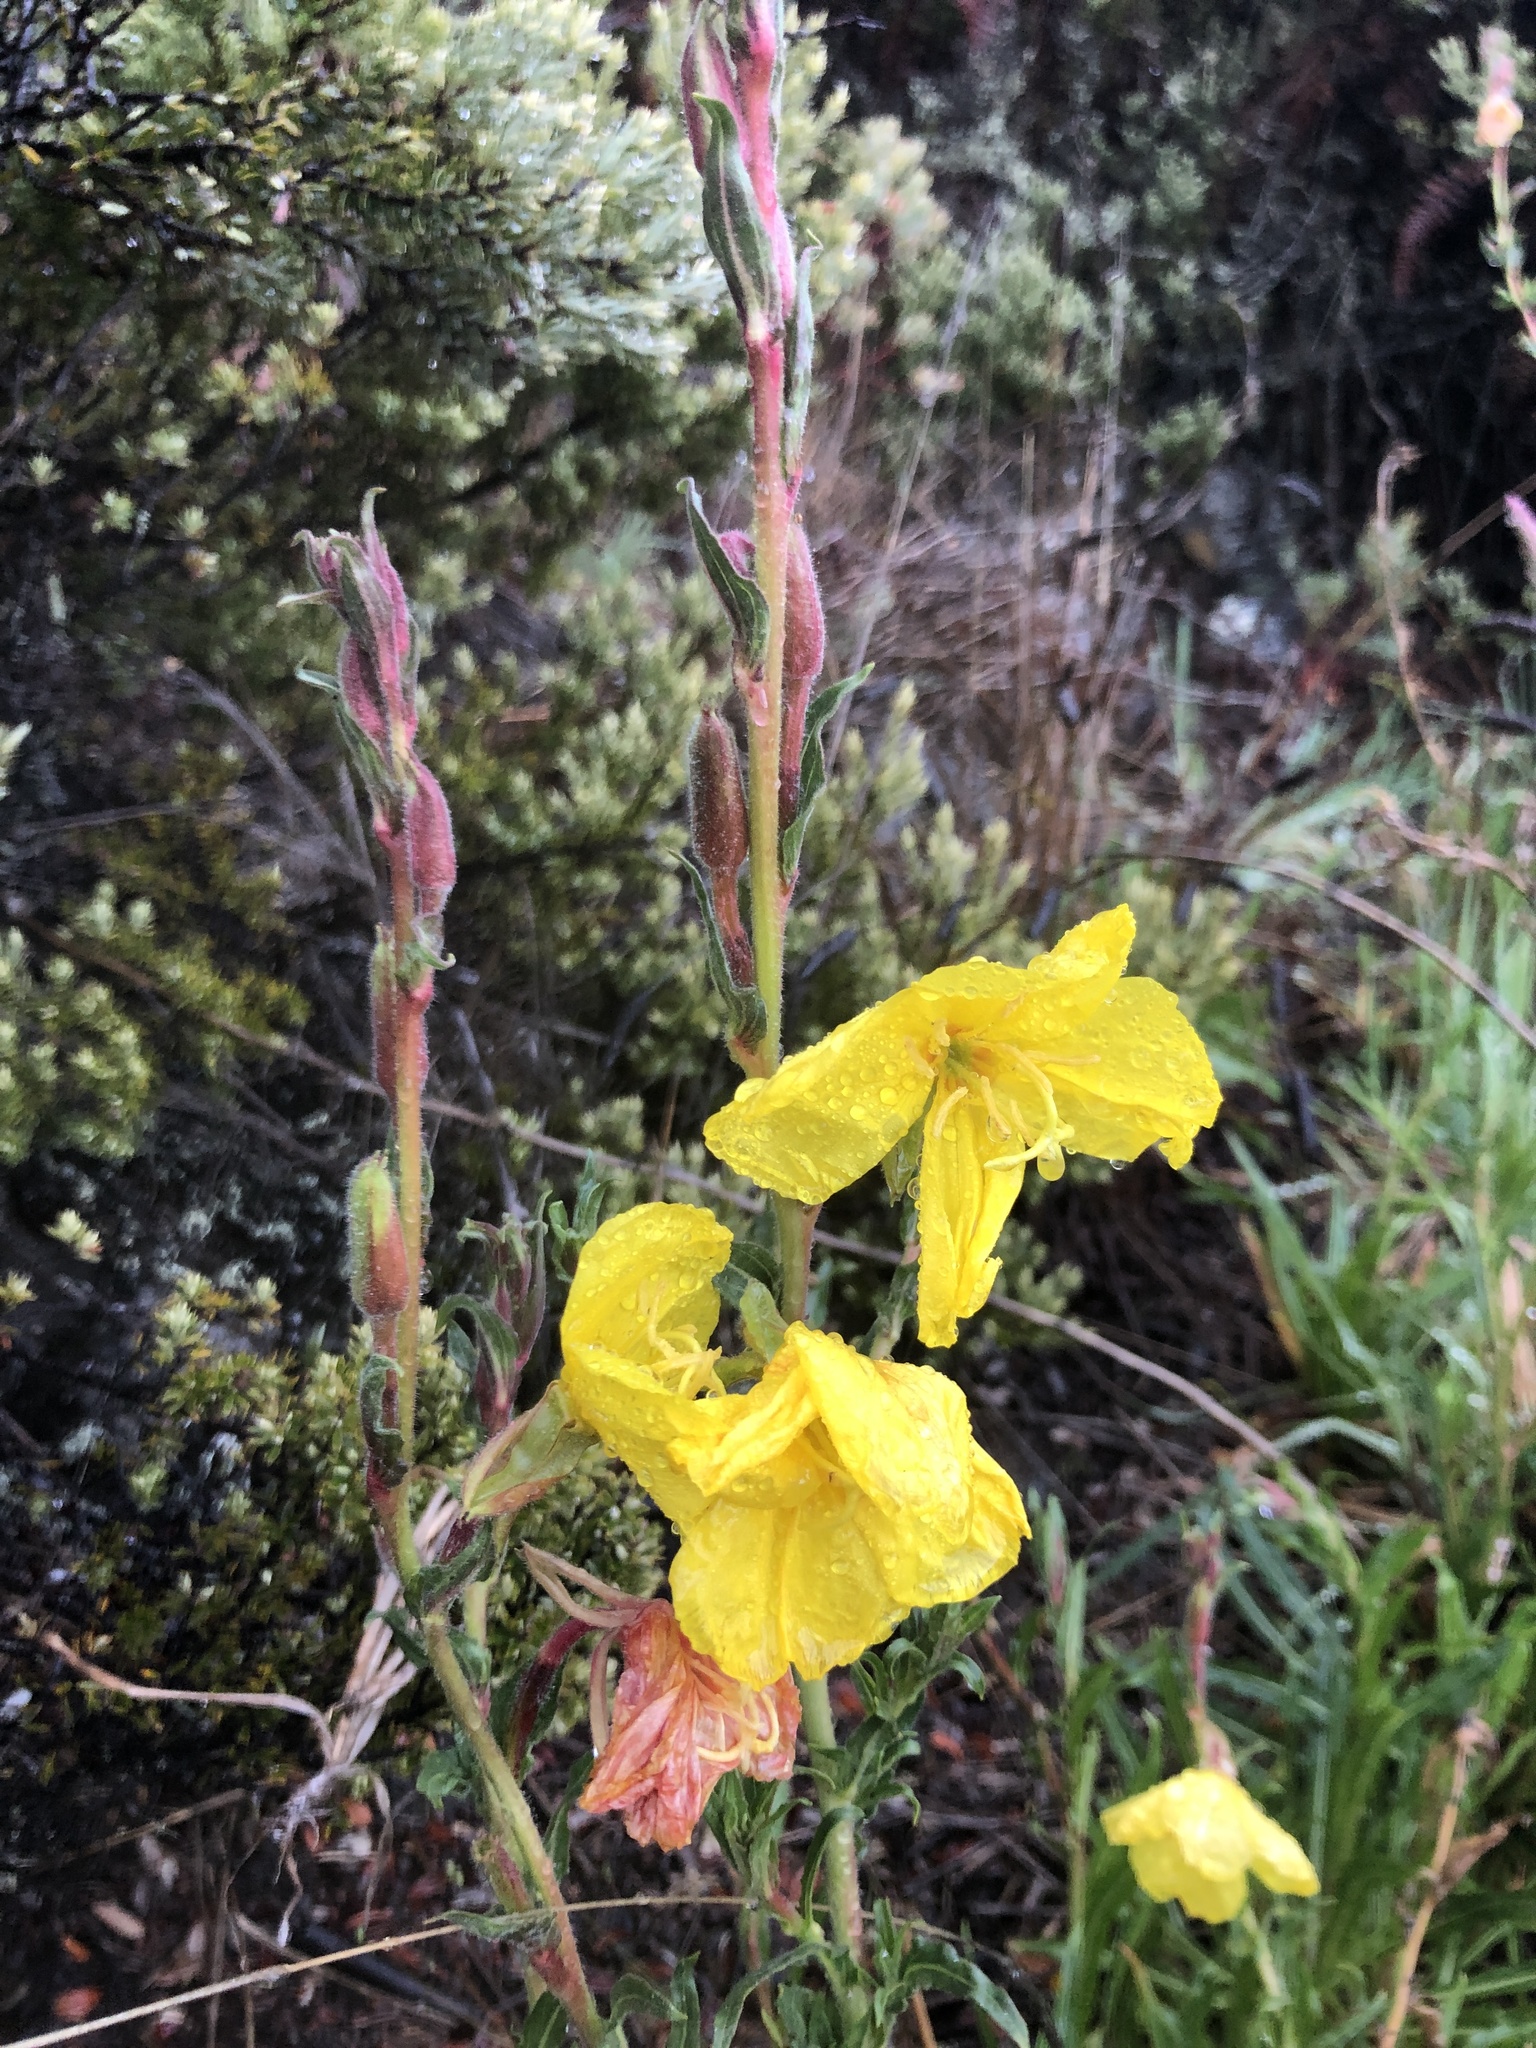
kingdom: Plantae
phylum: Tracheophyta
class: Magnoliopsida
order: Myrtales
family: Onagraceae
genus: Oenothera
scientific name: Oenothera stricta
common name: Fragrant evening-primrose
